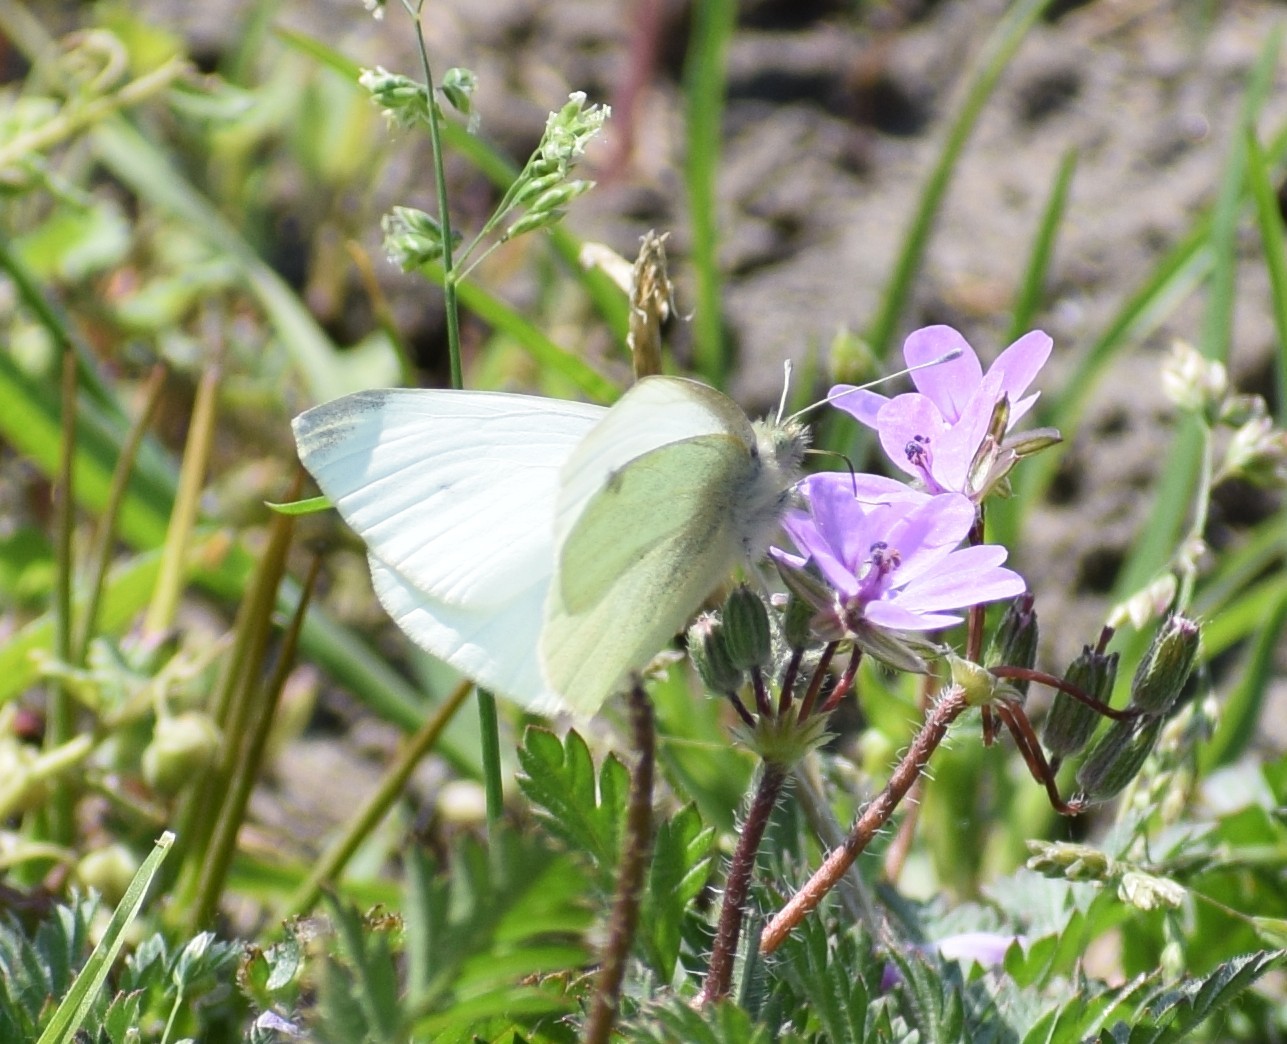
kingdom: Animalia
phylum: Arthropoda
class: Insecta
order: Lepidoptera
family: Pieridae
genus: Pieris
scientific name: Pieris rapae
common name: Small white
